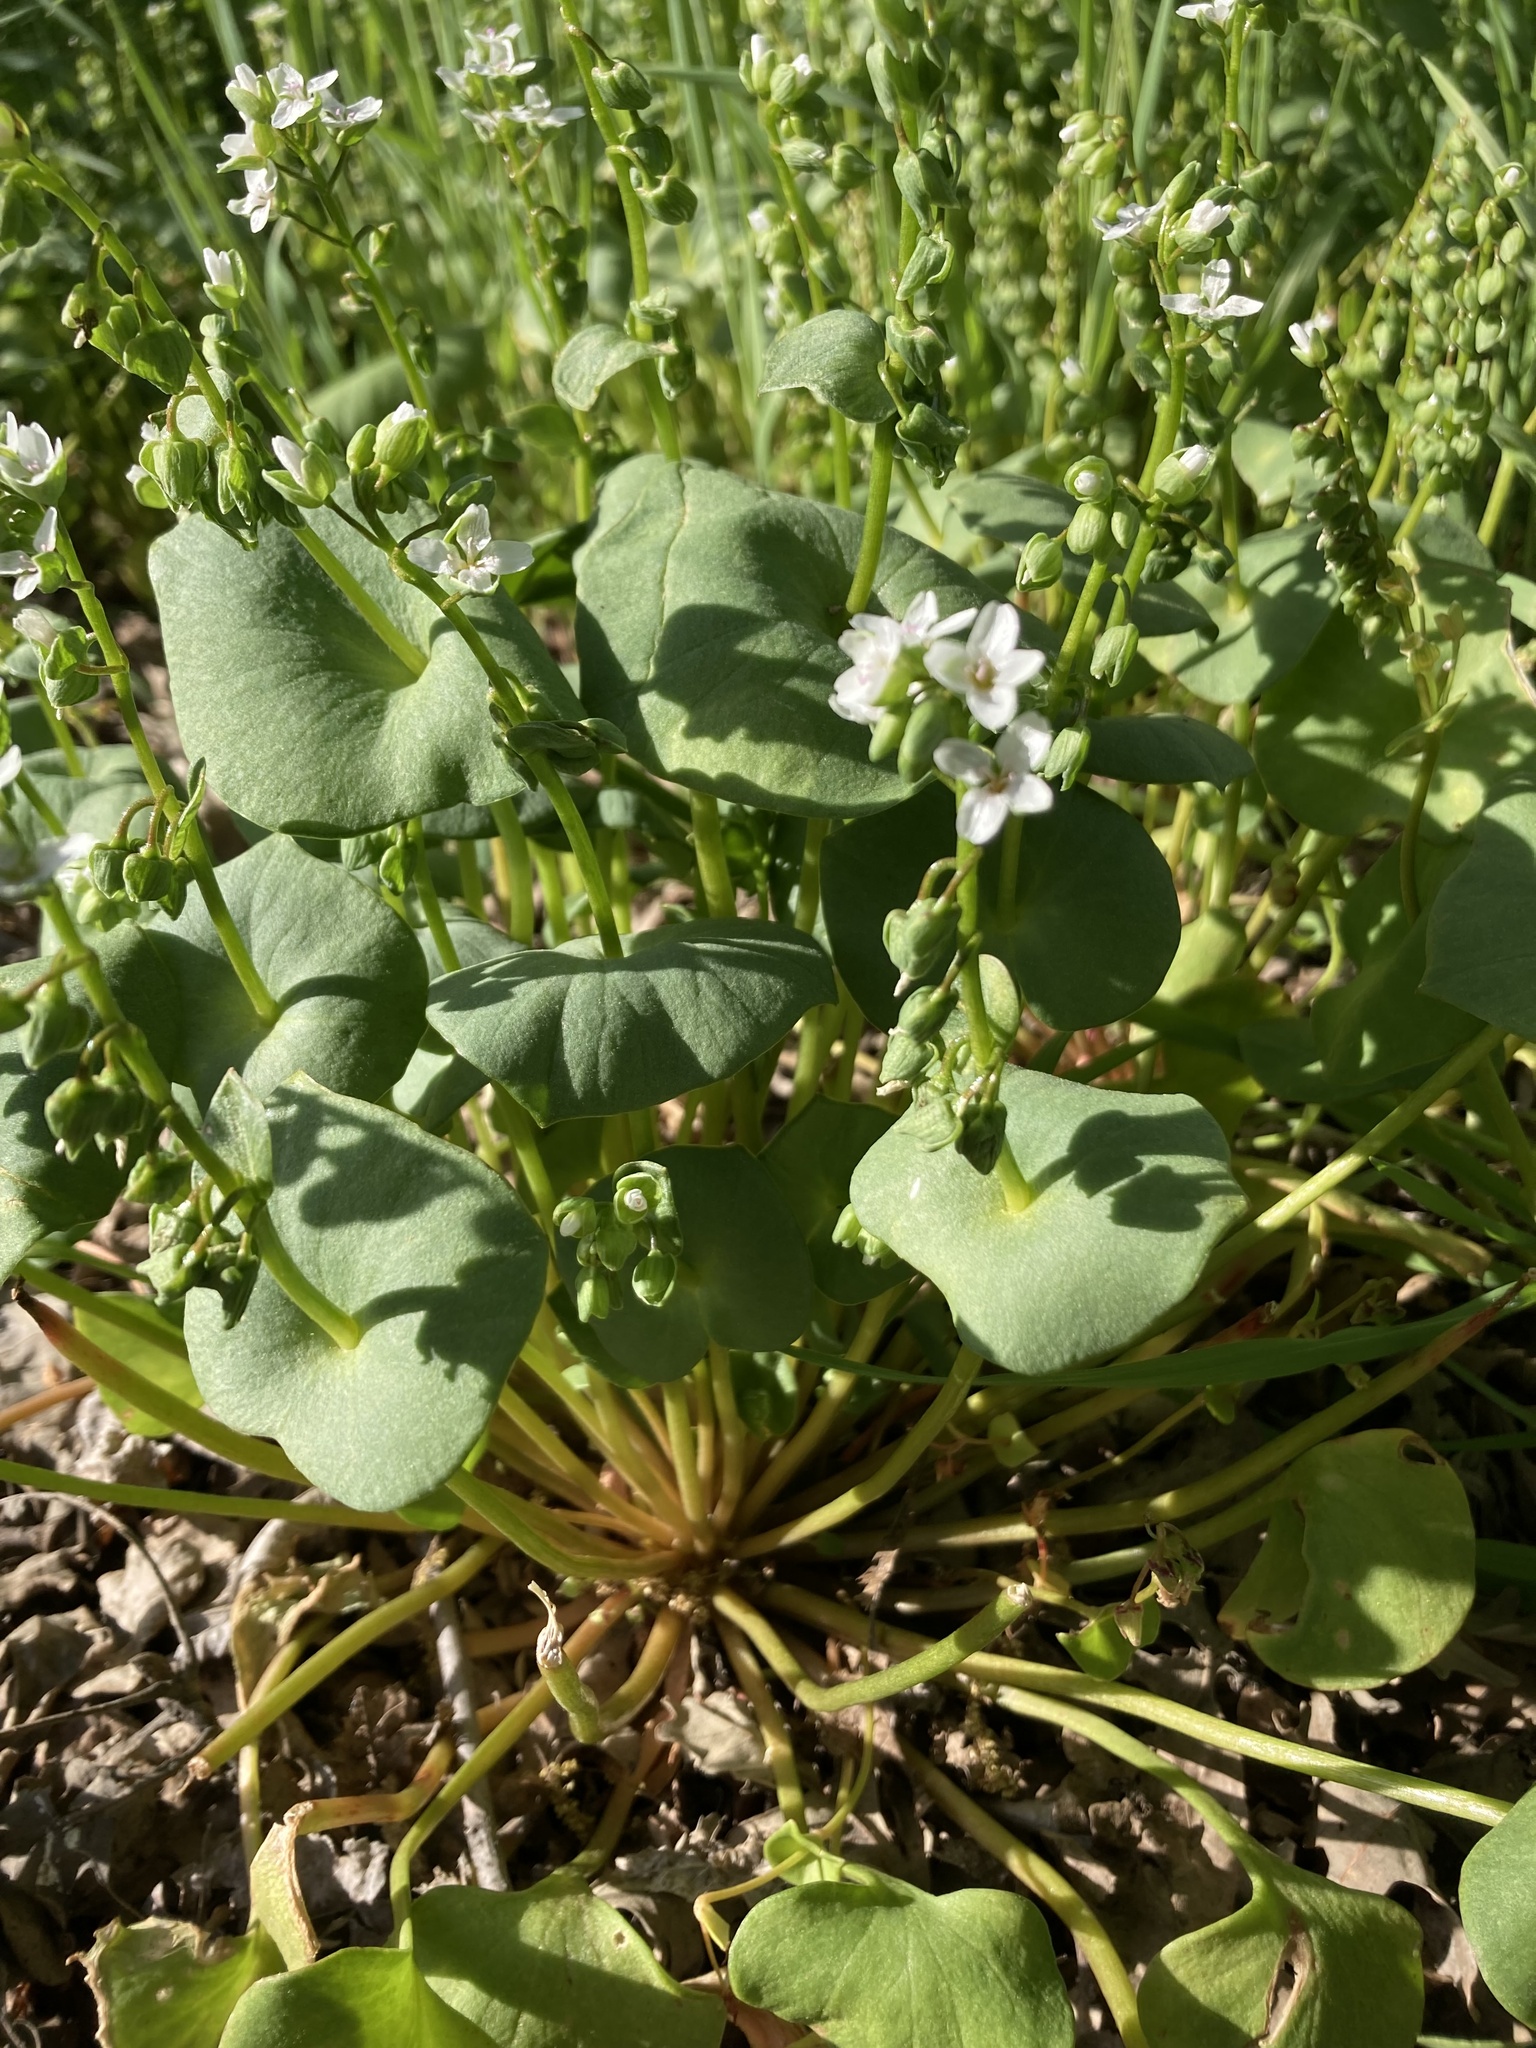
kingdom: Plantae
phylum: Tracheophyta
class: Magnoliopsida
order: Caryophyllales
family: Montiaceae
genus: Claytonia
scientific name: Claytonia perfoliata
